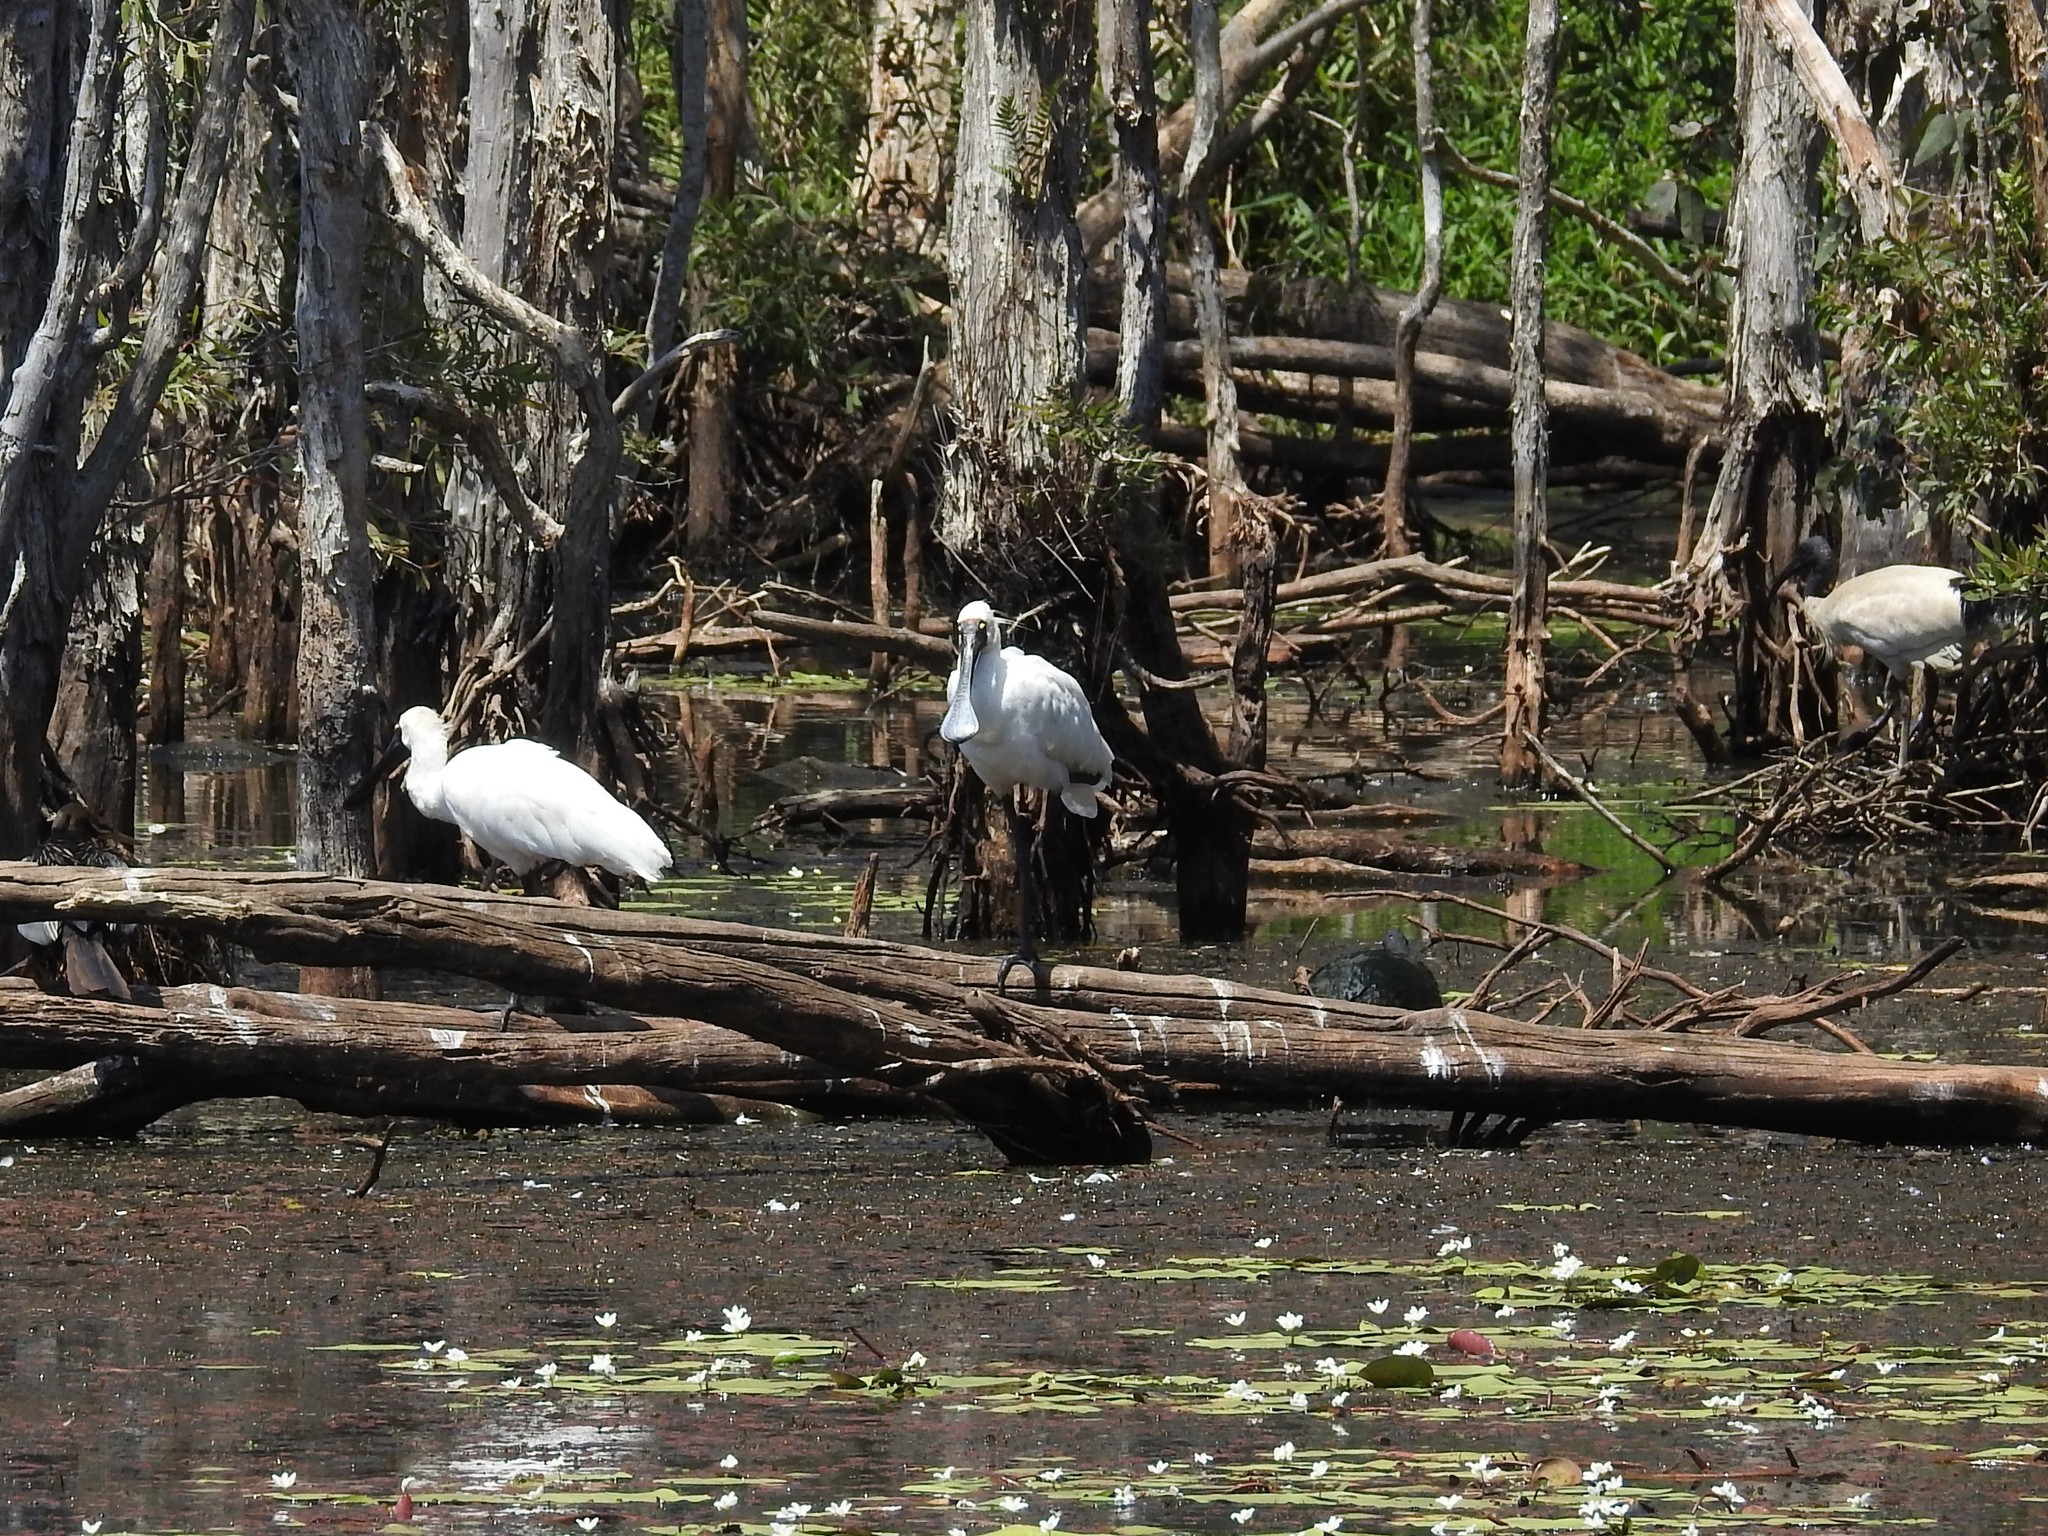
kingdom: Animalia
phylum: Chordata
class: Aves
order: Pelecaniformes
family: Threskiornithidae
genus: Platalea
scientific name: Platalea regia
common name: Royal spoonbill
